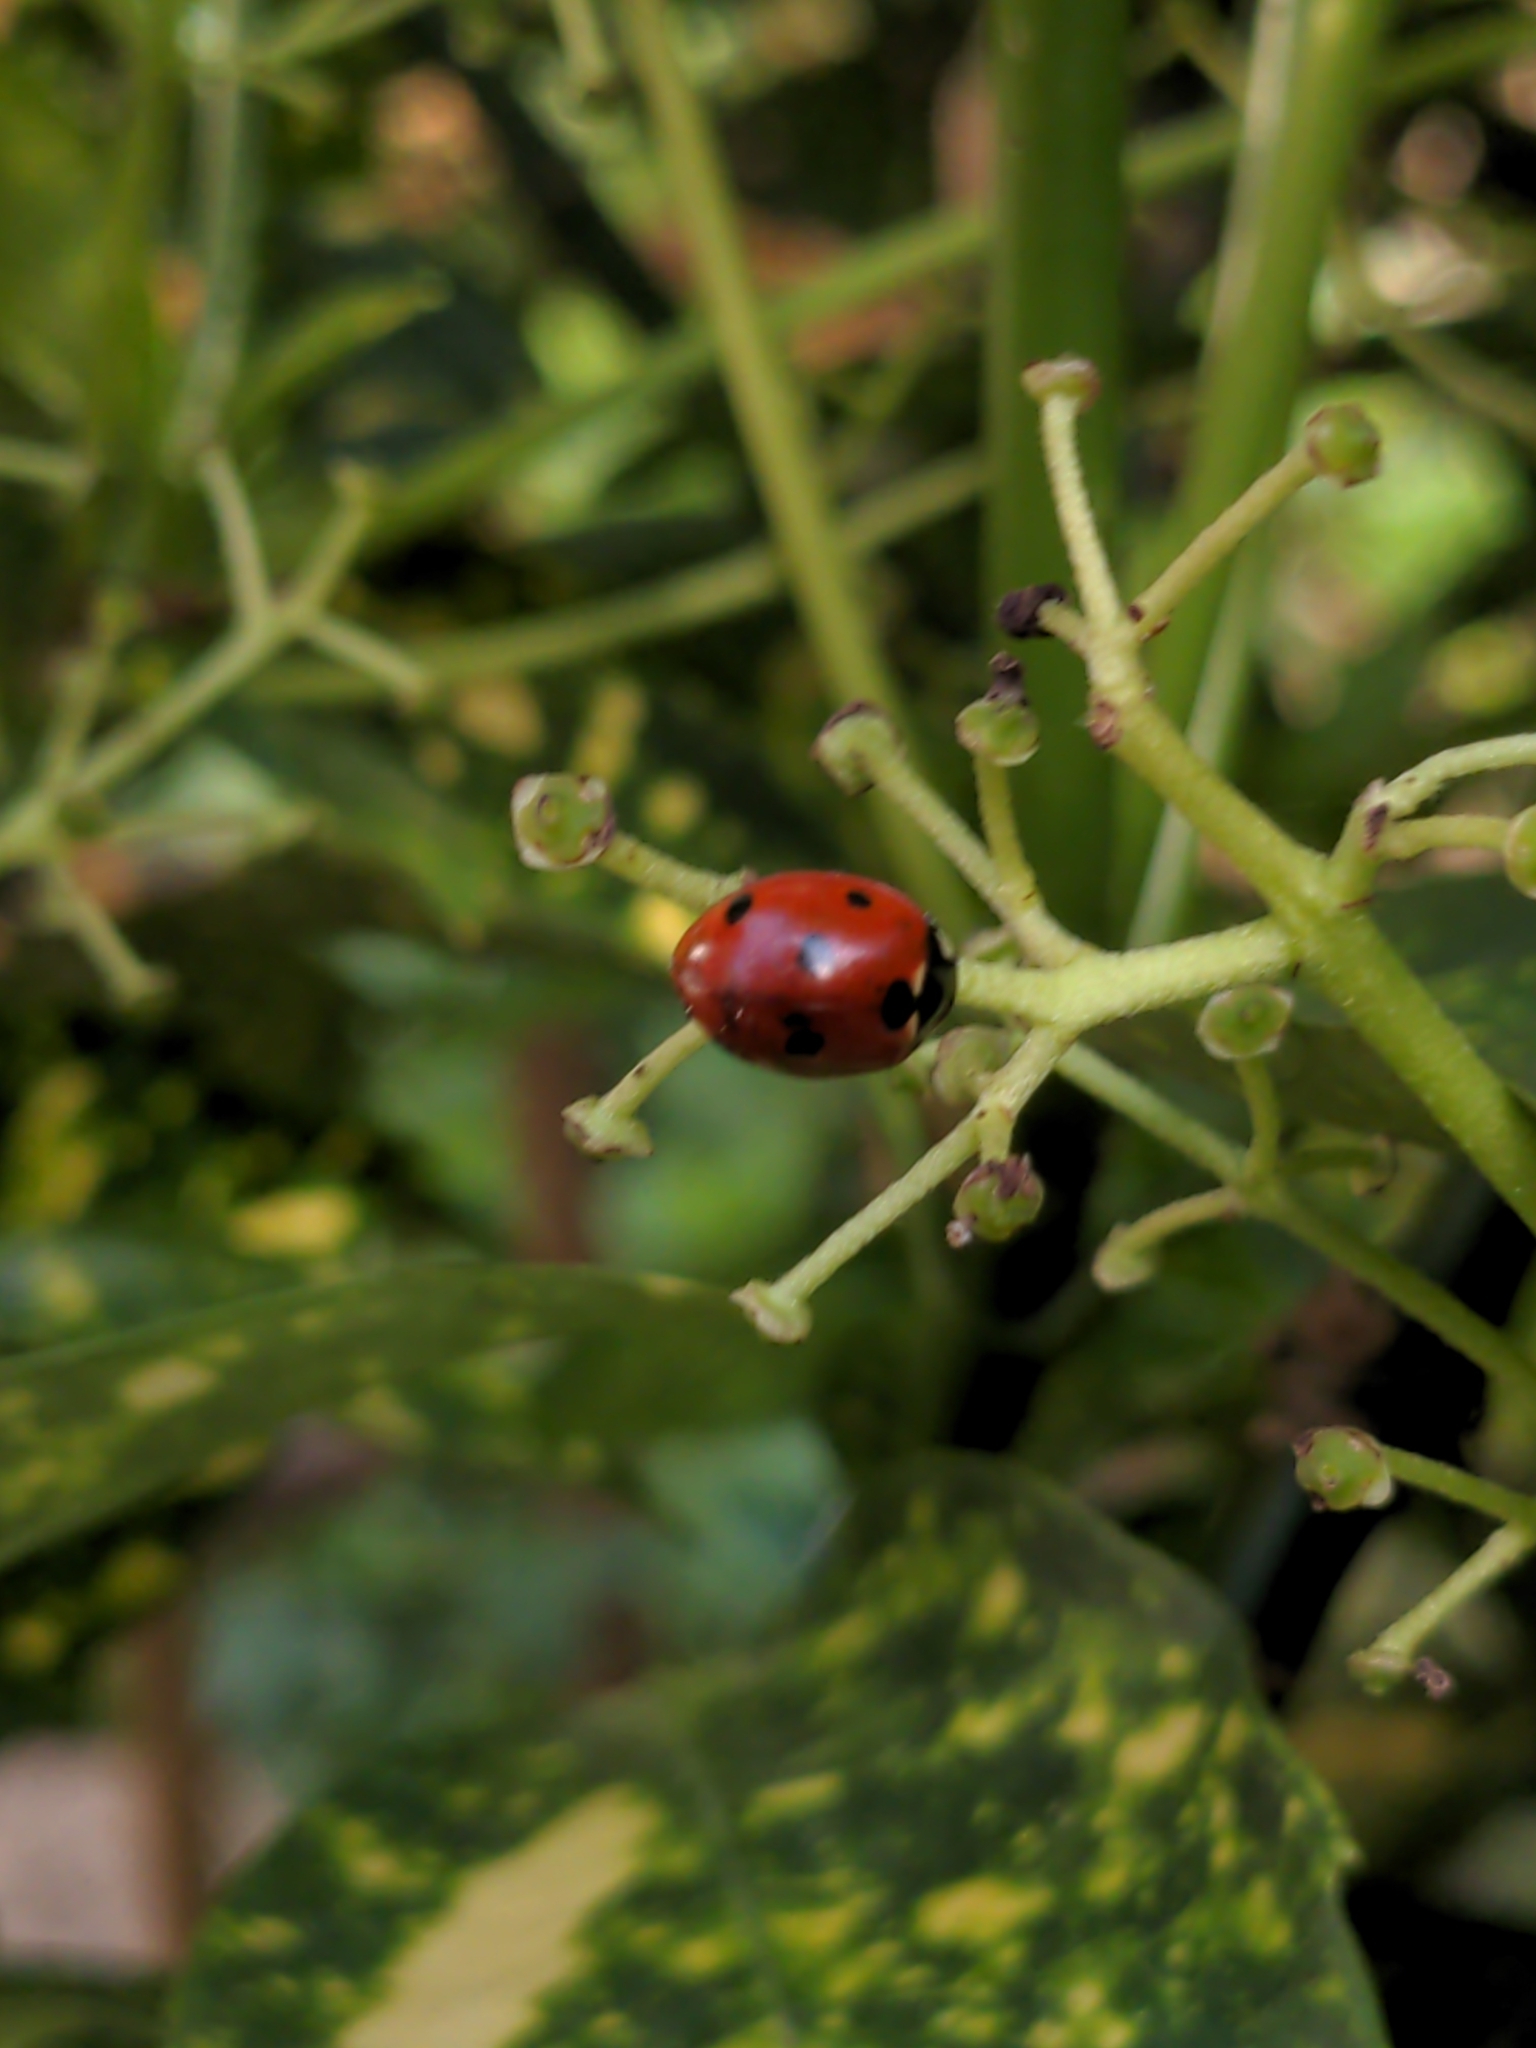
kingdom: Animalia
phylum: Arthropoda
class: Insecta
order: Coleoptera
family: Coccinellidae
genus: Coccinella
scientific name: Coccinella septempunctata
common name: Sevenspotted lady beetle
